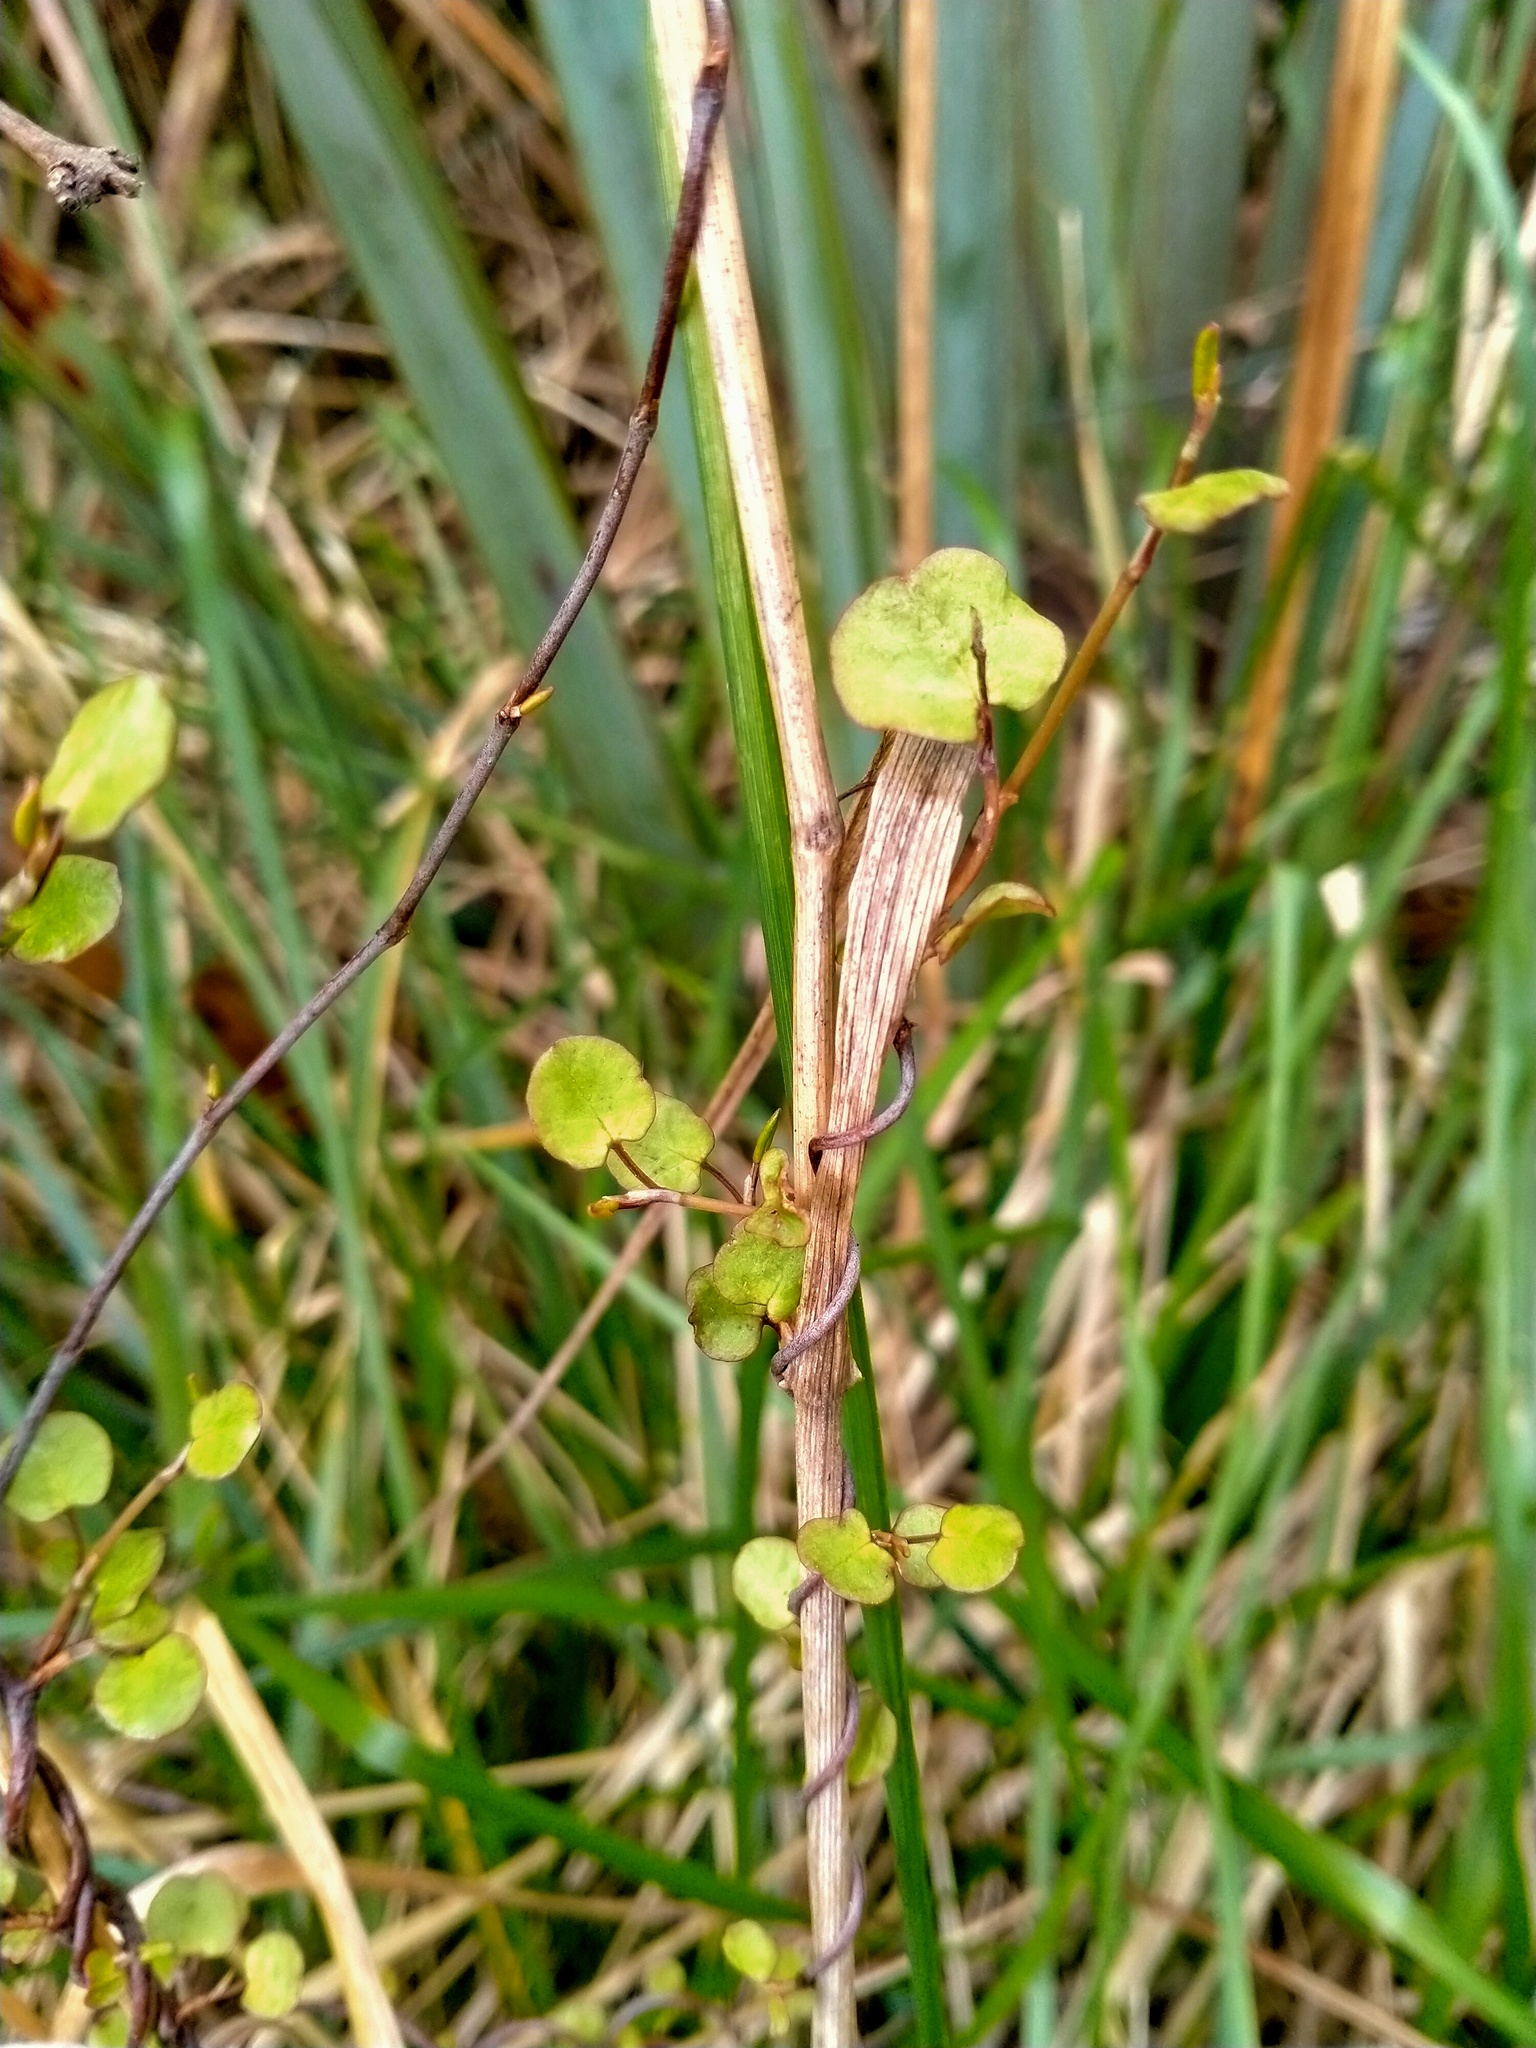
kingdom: Plantae
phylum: Tracheophyta
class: Magnoliopsida
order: Caryophyllales
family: Polygonaceae
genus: Muehlenbeckia
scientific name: Muehlenbeckia australis
